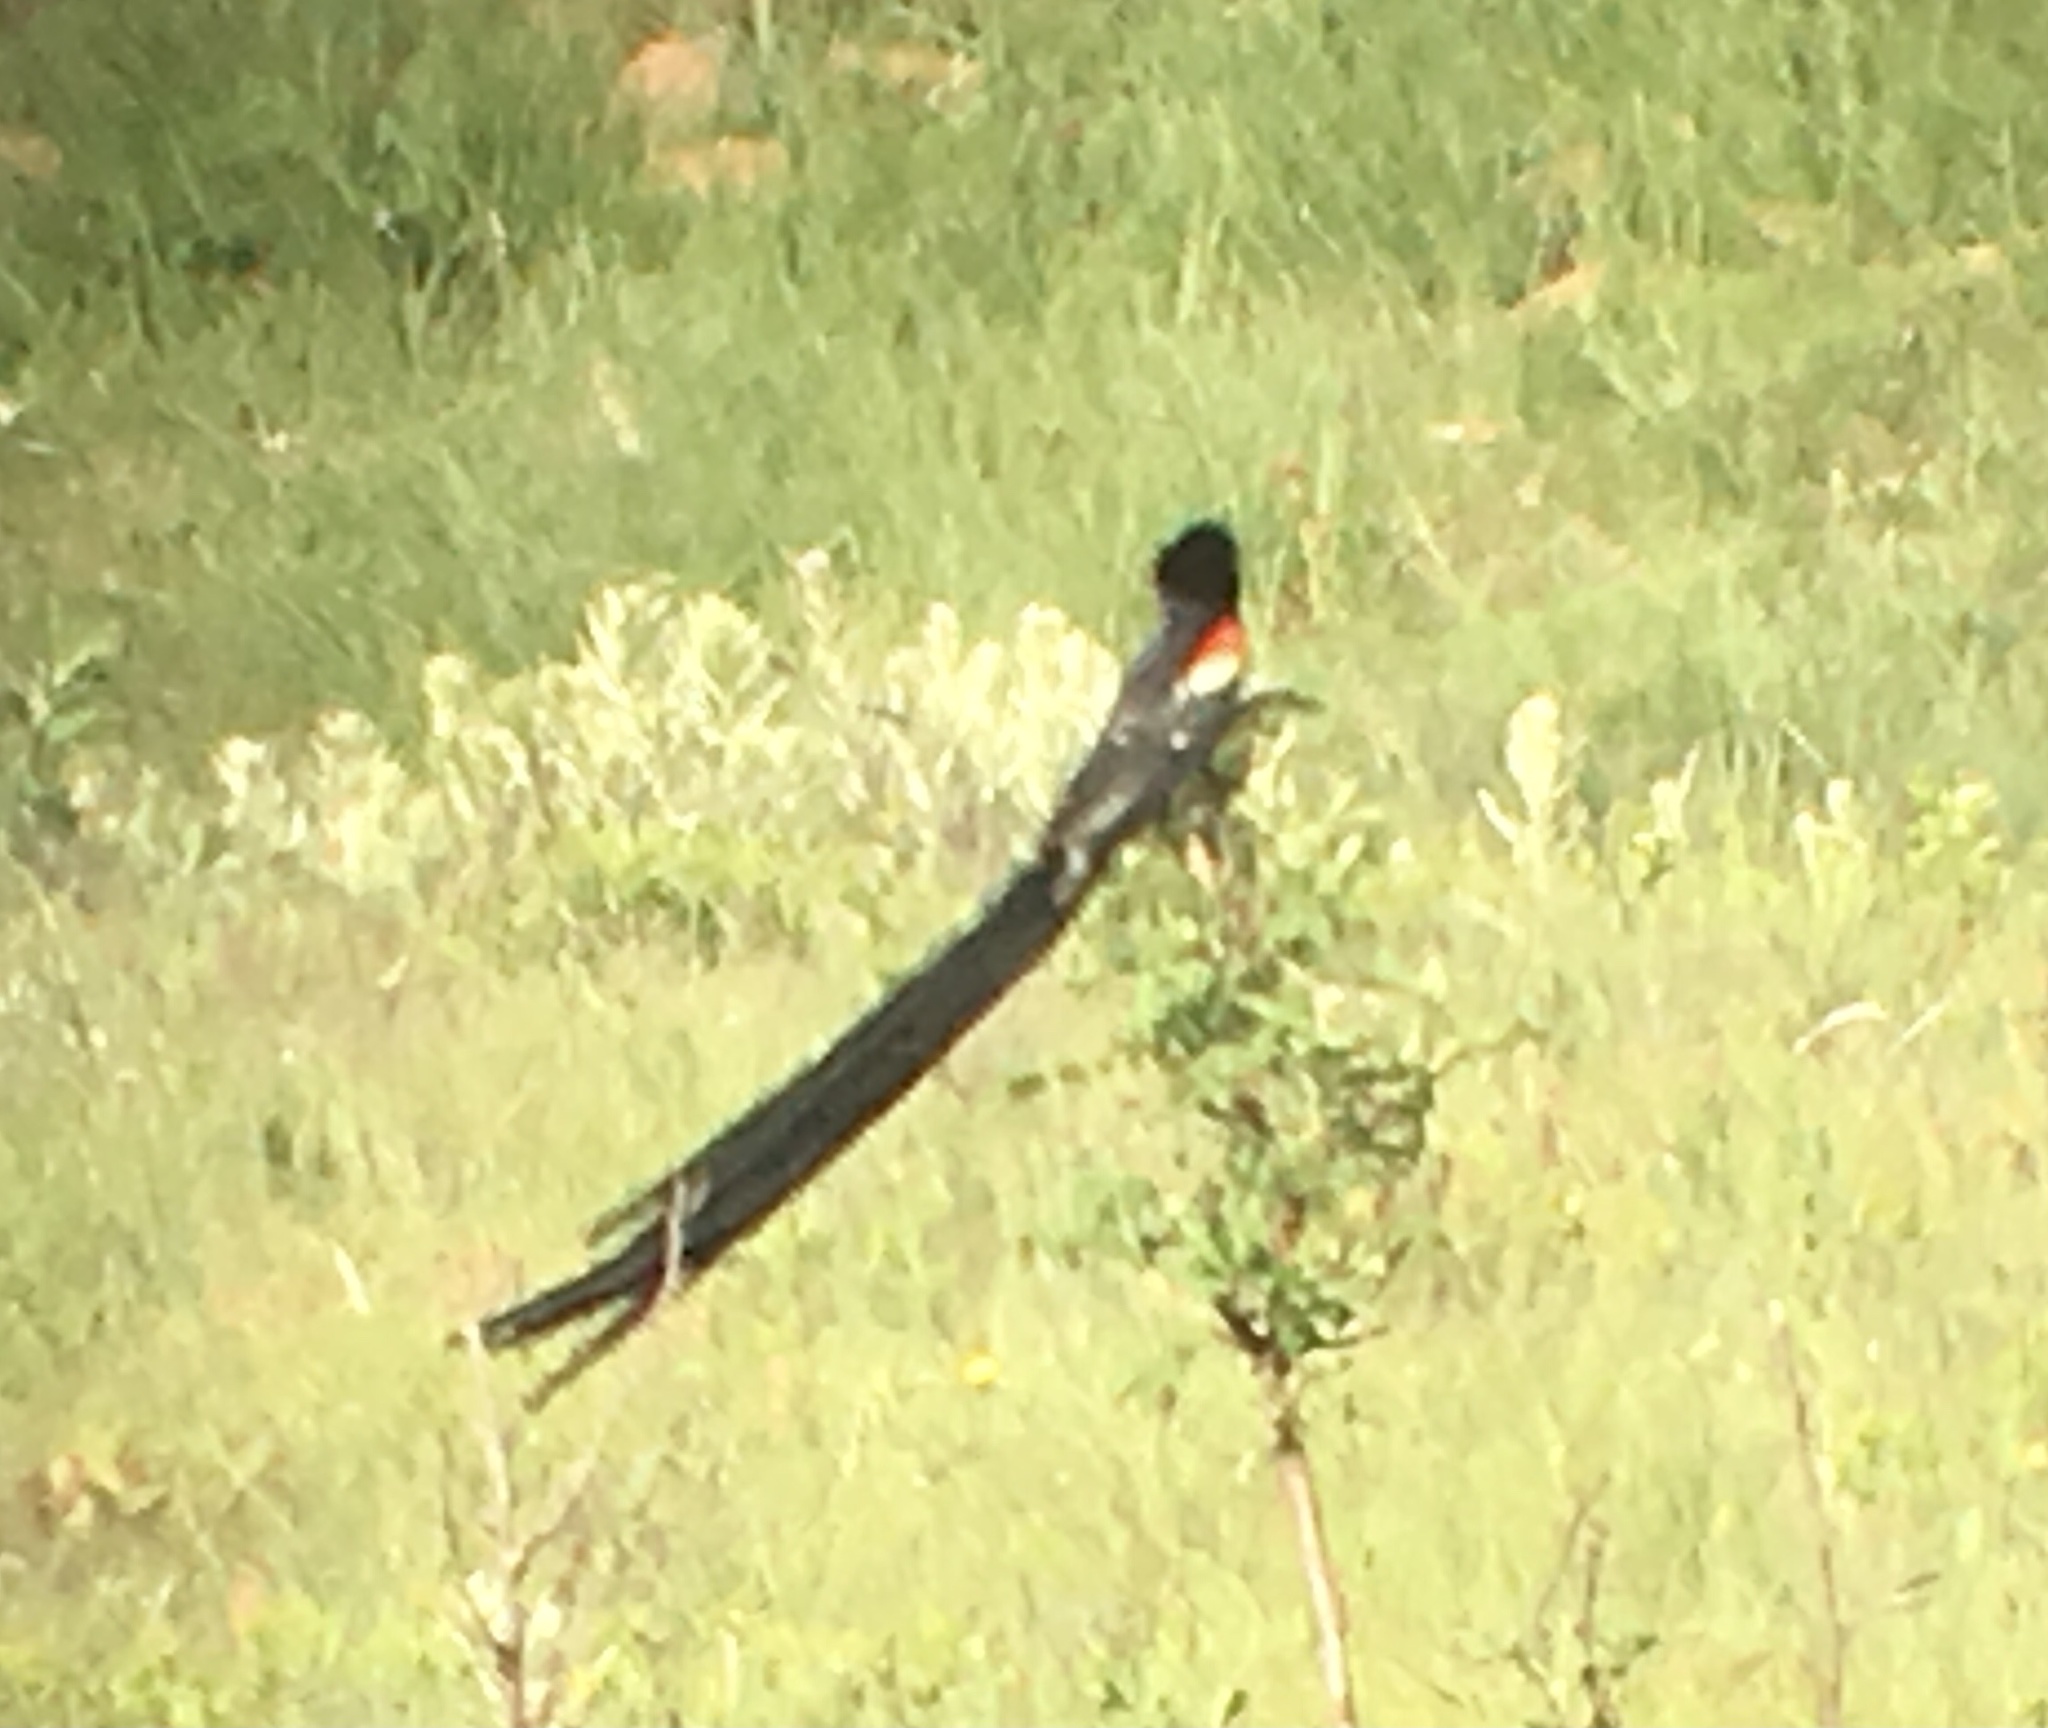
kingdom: Animalia
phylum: Chordata
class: Aves
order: Passeriformes
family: Ploceidae
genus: Euplectes
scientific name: Euplectes progne
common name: Long-tailed widowbird
